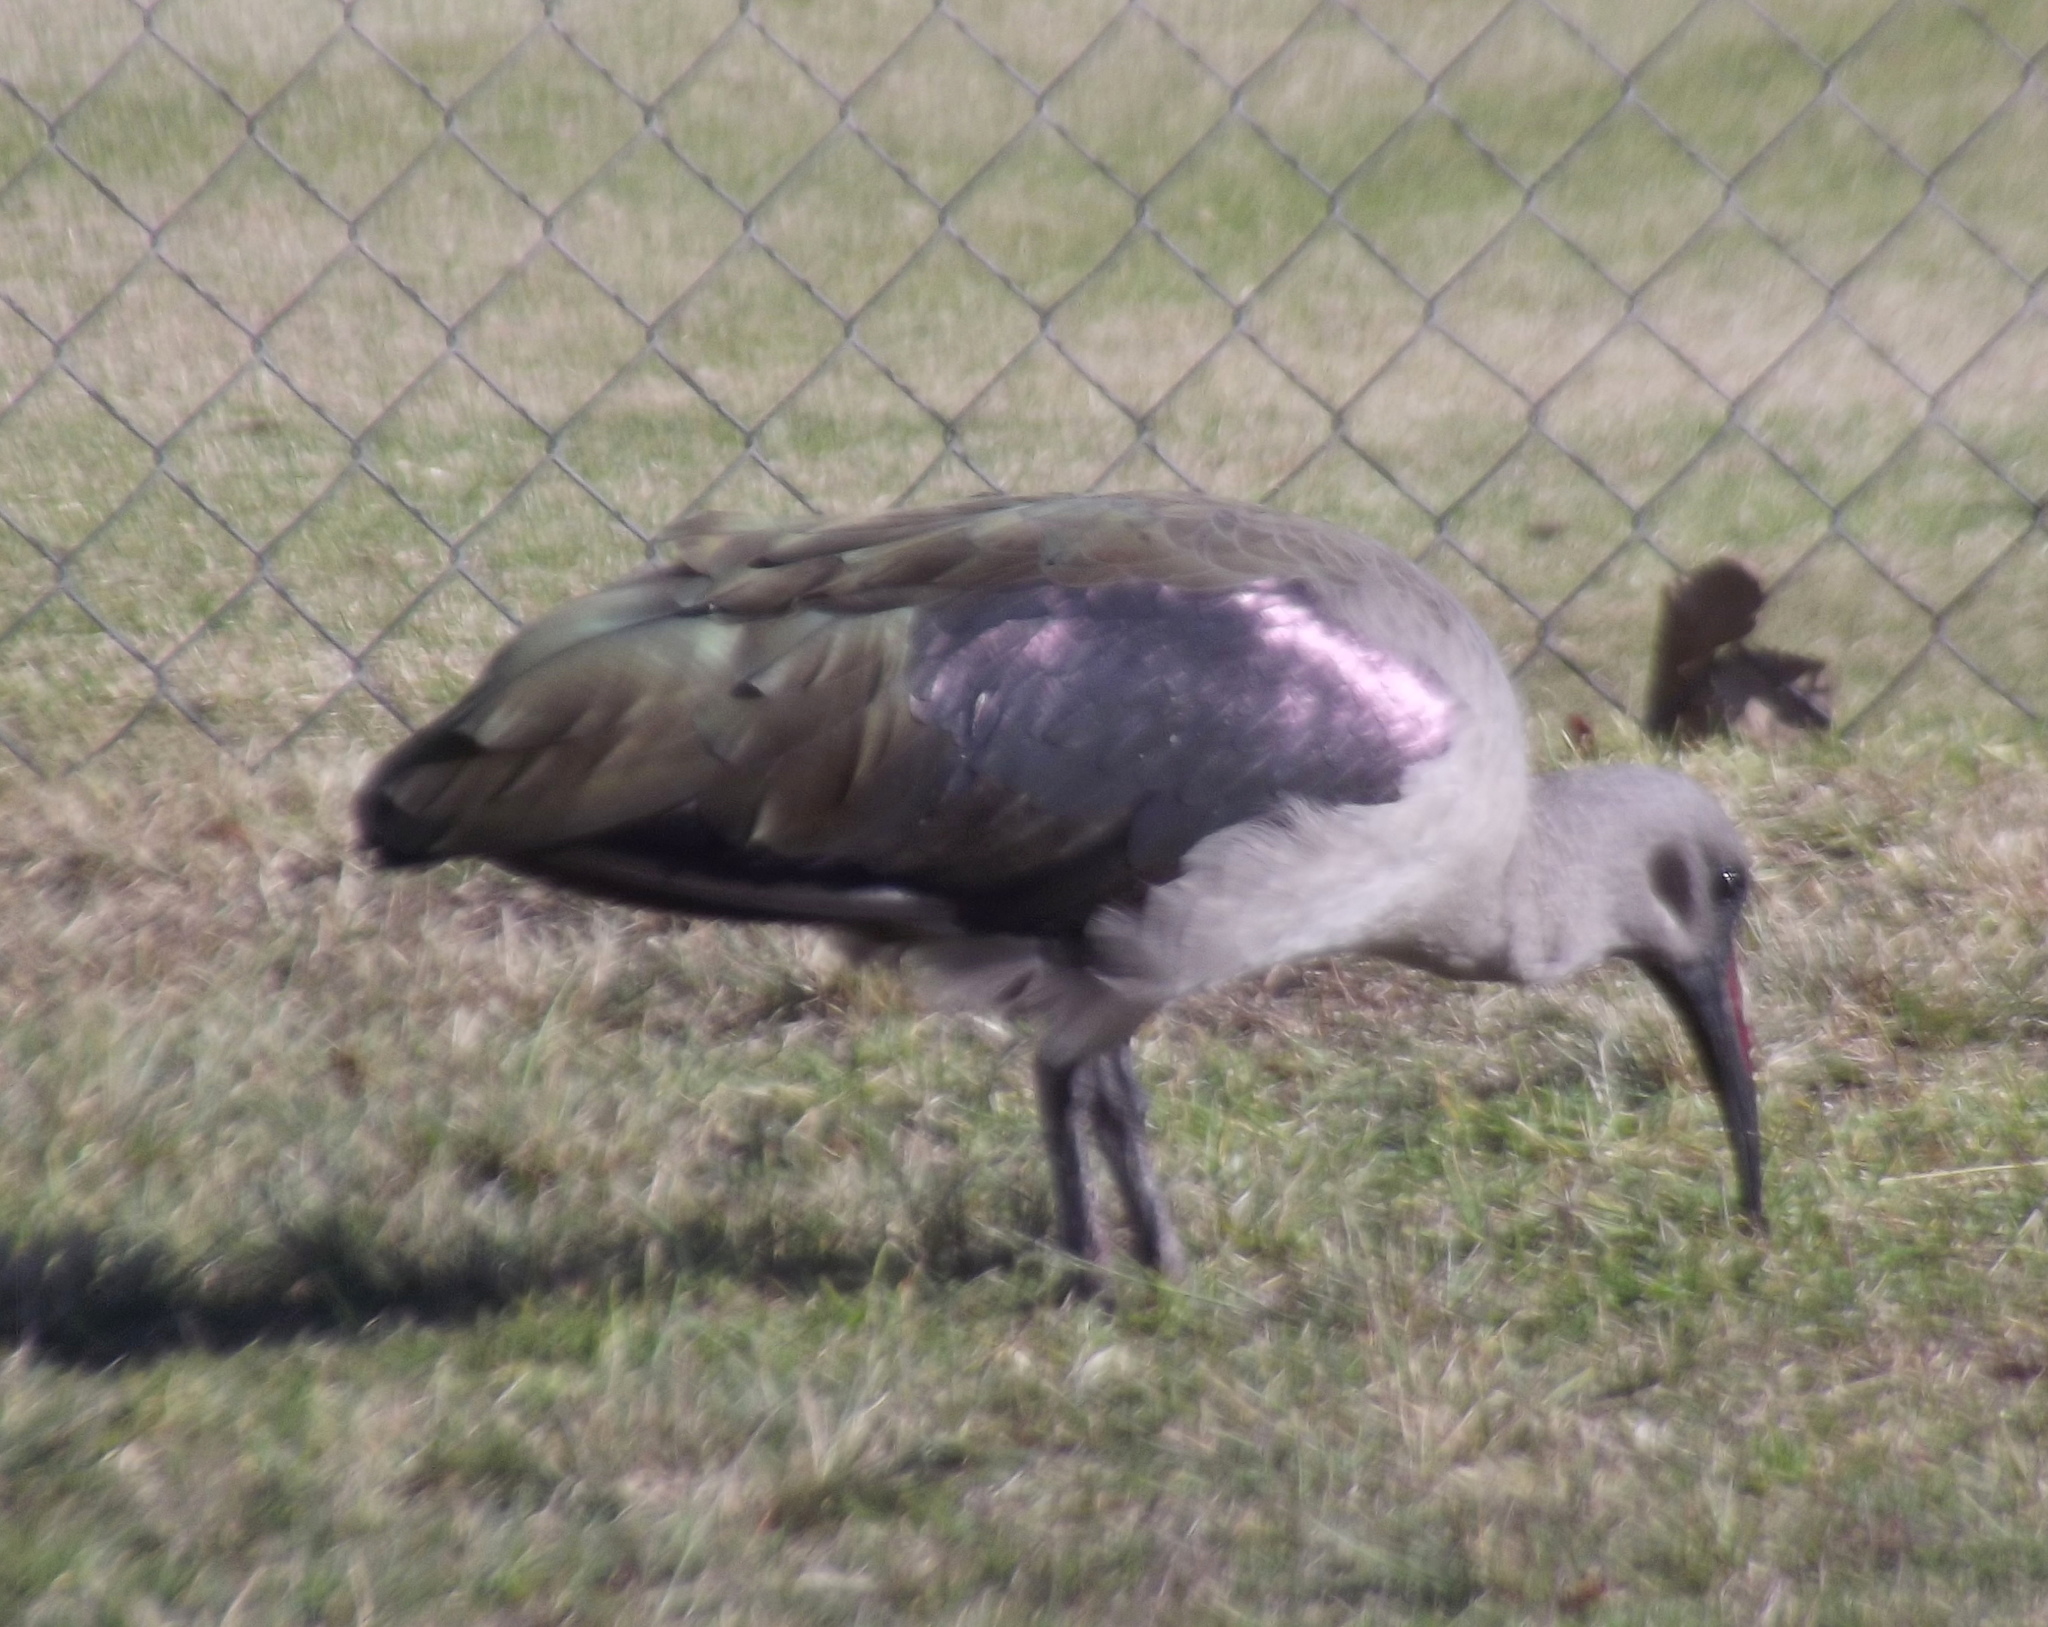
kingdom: Animalia
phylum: Chordata
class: Aves
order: Pelecaniformes
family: Threskiornithidae
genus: Bostrychia
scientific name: Bostrychia hagedash
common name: Hadada ibis
